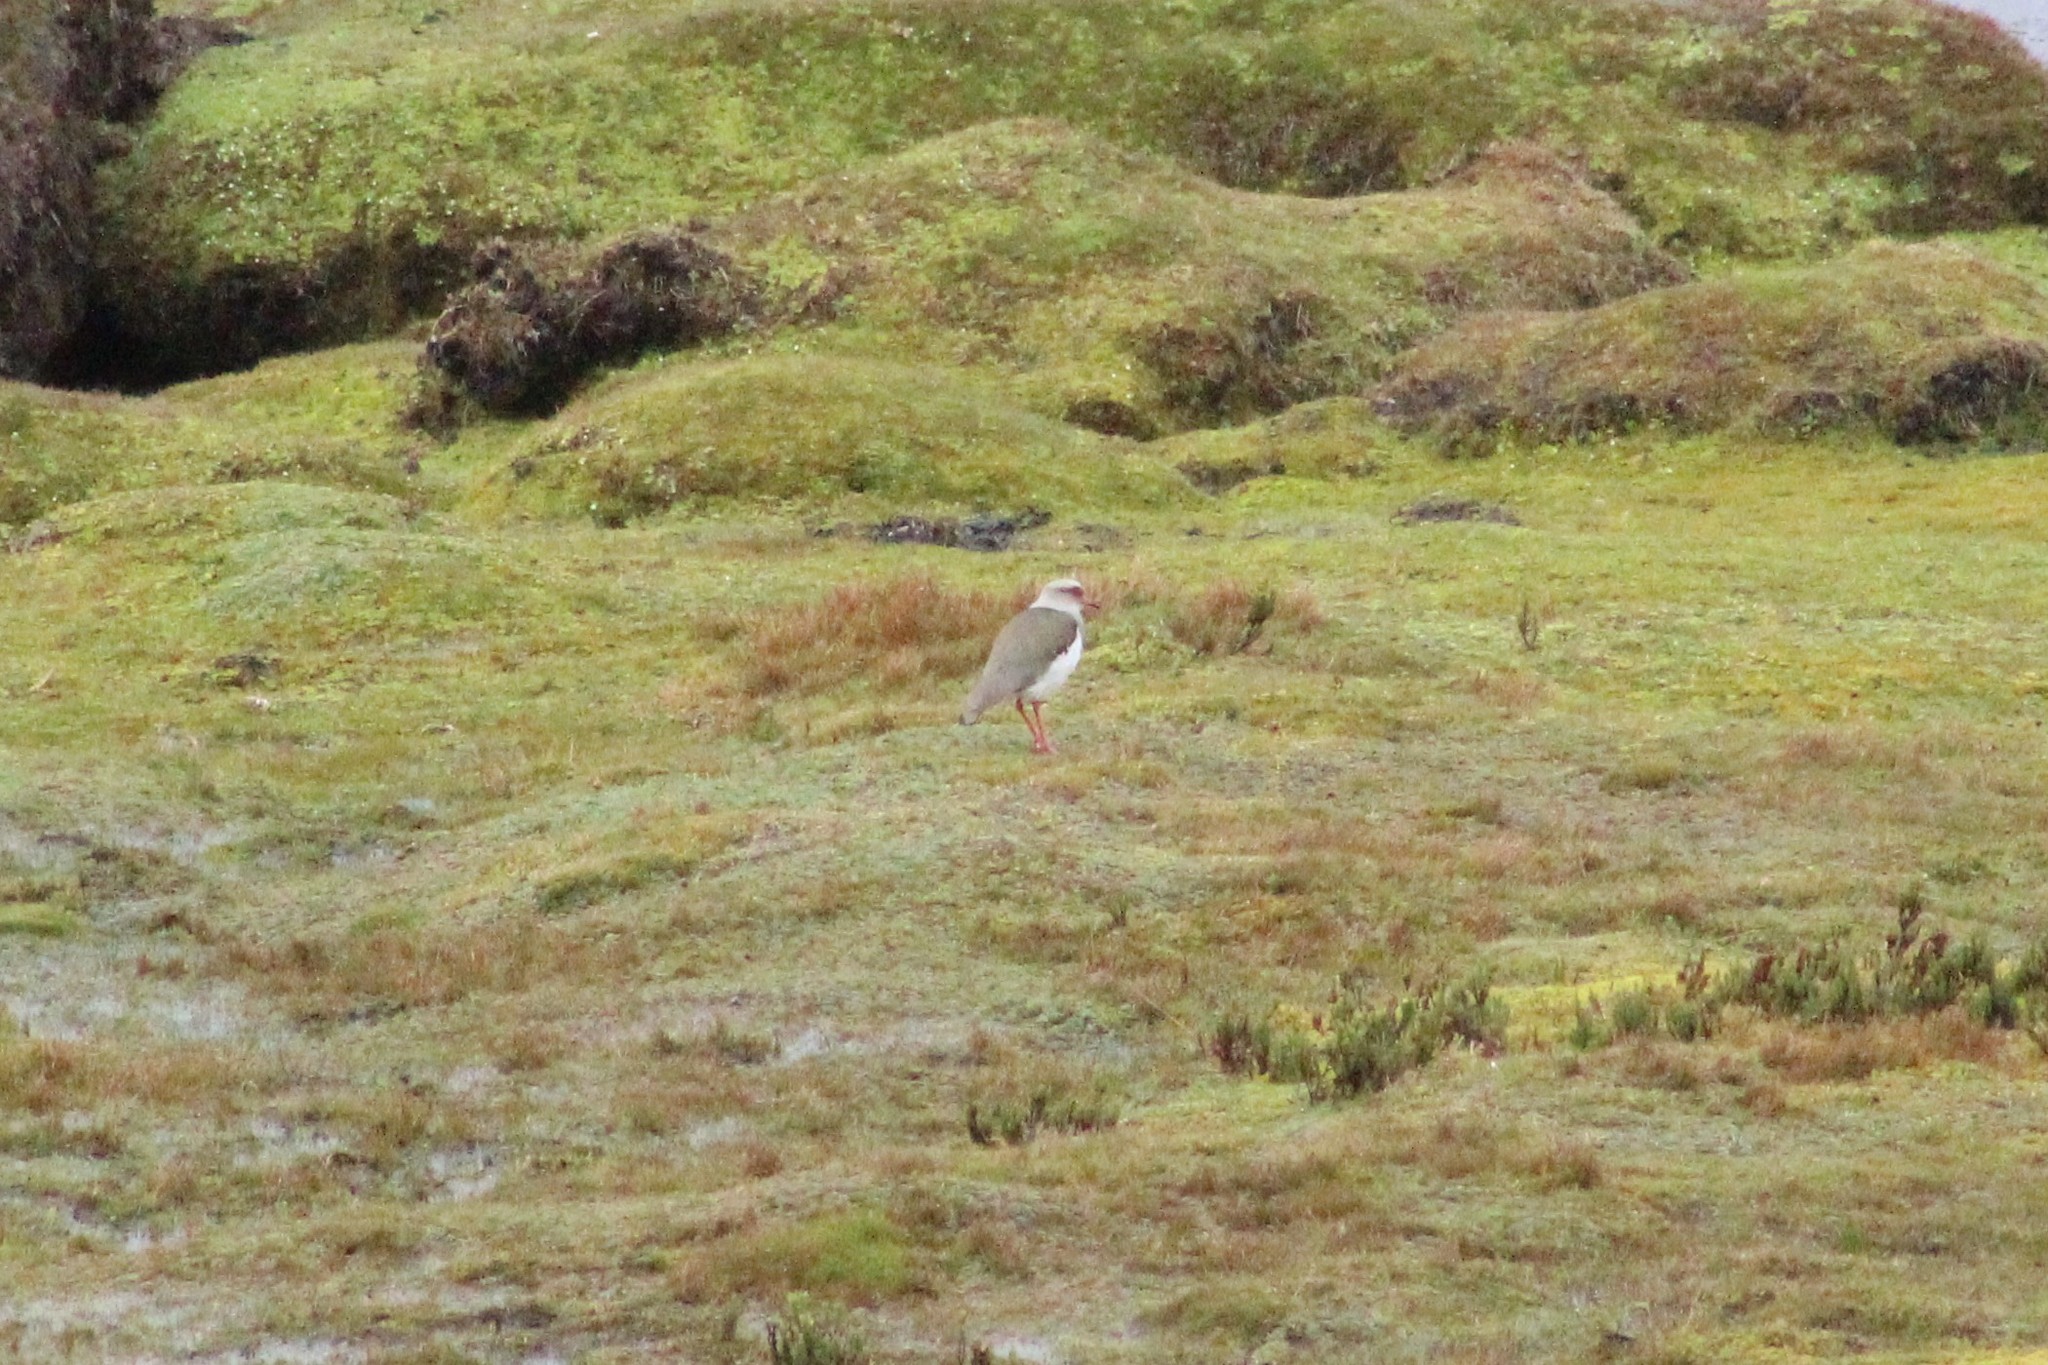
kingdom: Animalia
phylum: Chordata
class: Aves
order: Charadriiformes
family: Charadriidae
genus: Vanellus
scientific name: Vanellus resplendens
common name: Andean lapwing
